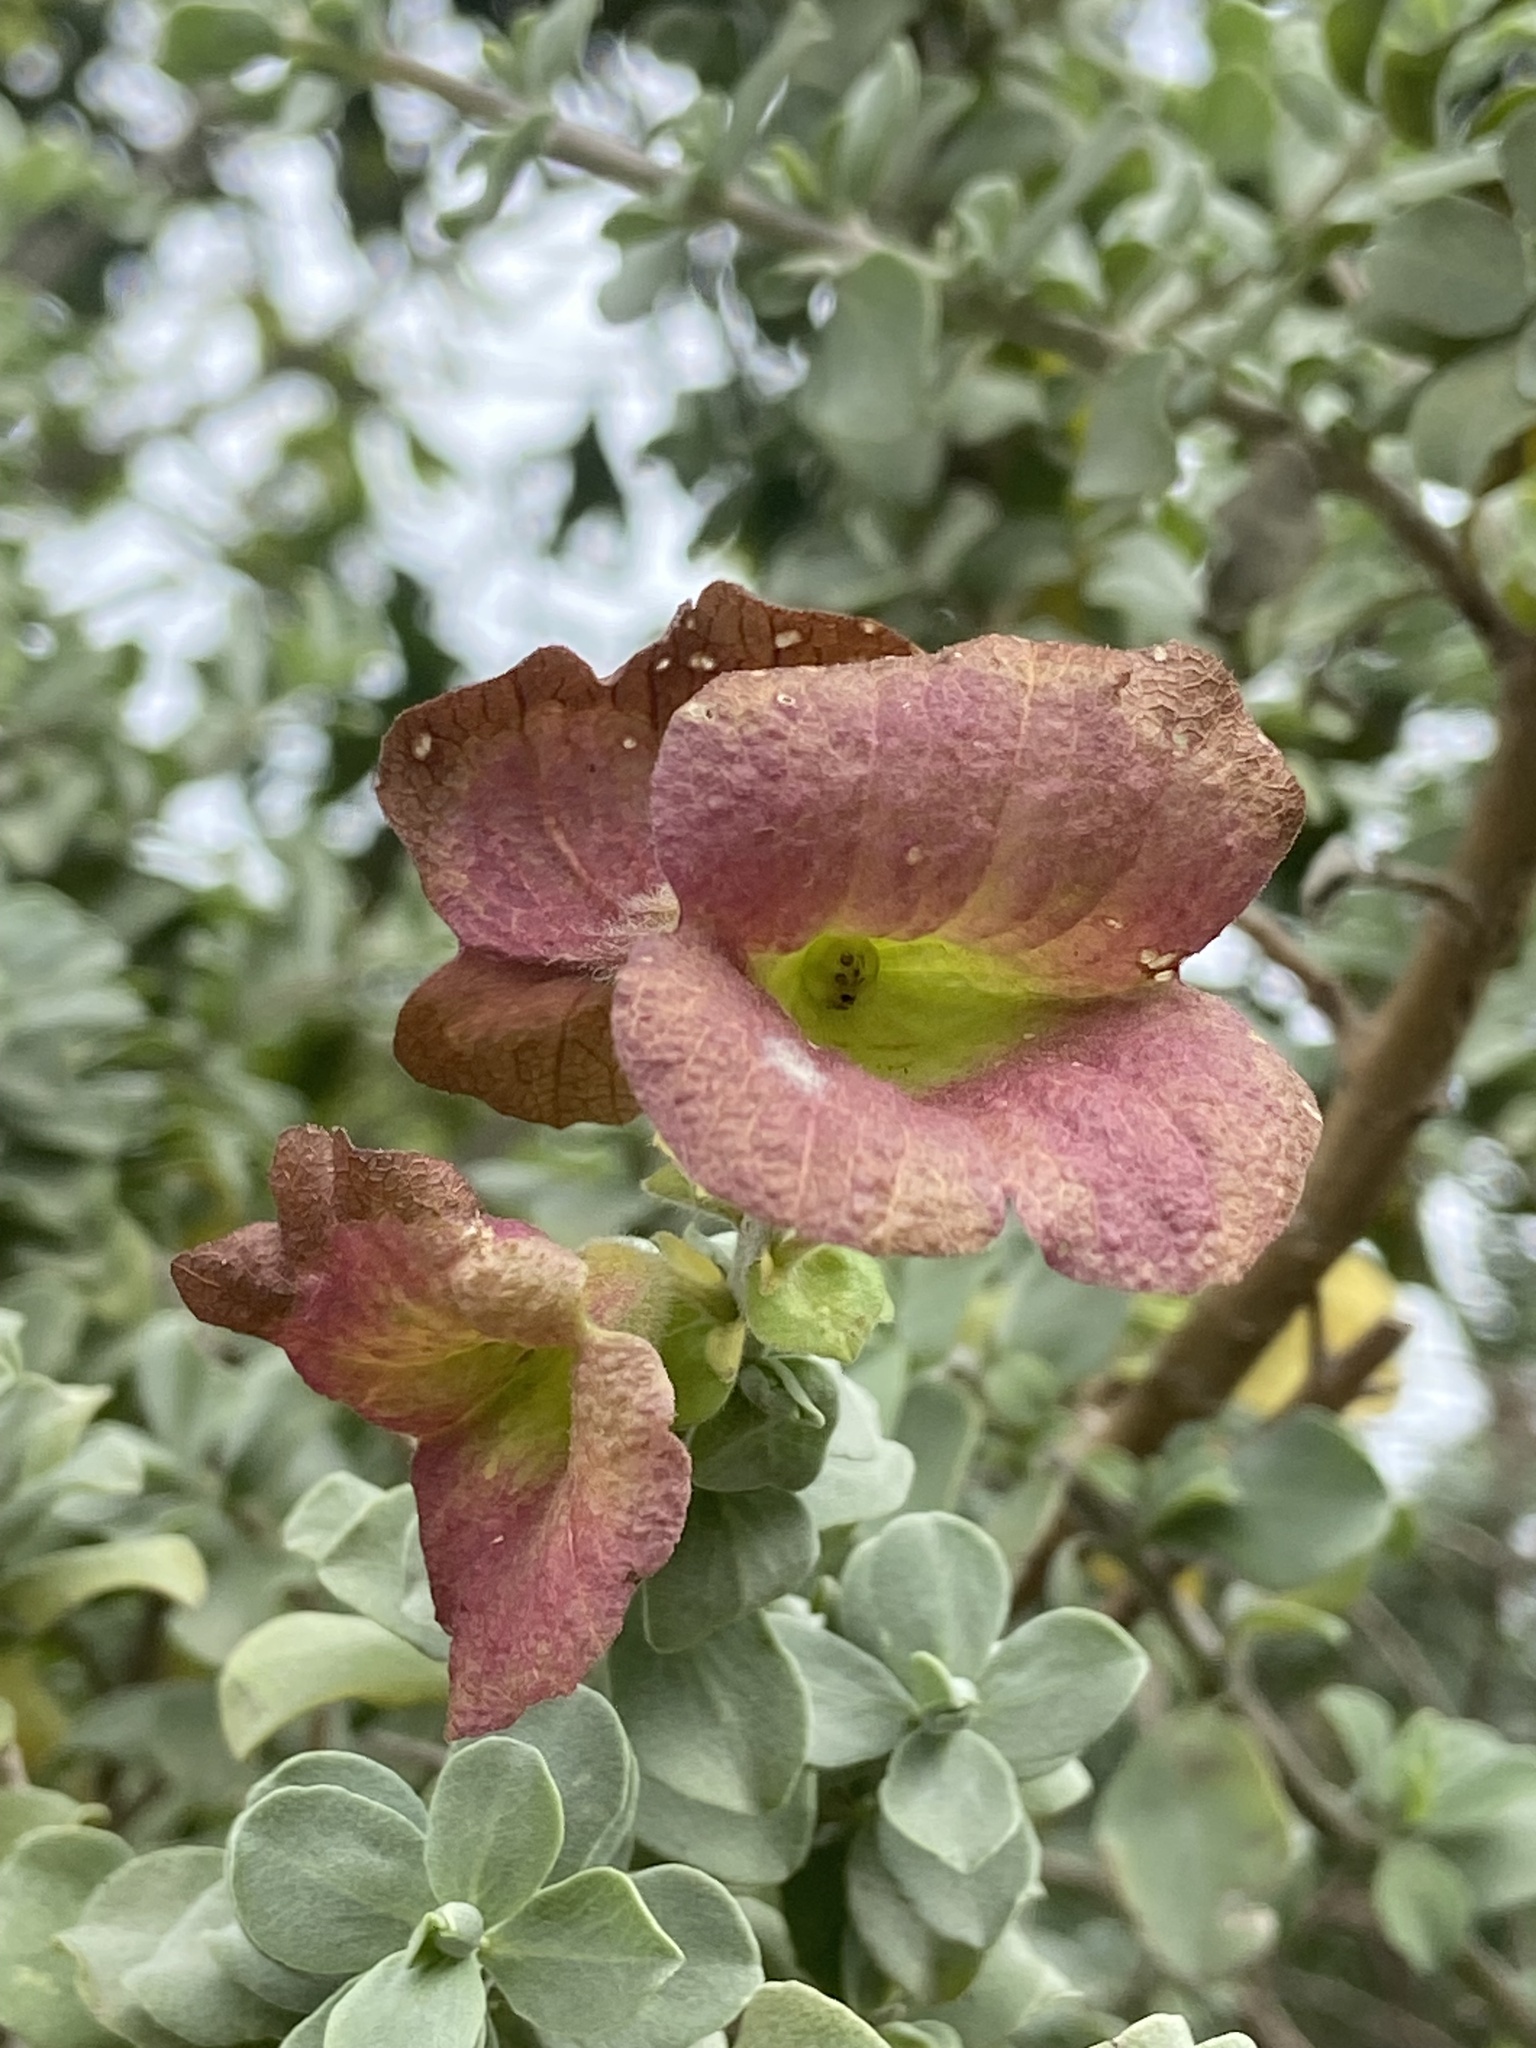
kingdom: Plantae
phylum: Tracheophyta
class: Magnoliopsida
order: Lamiales
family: Lamiaceae
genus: Salvia
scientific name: Salvia aurea
